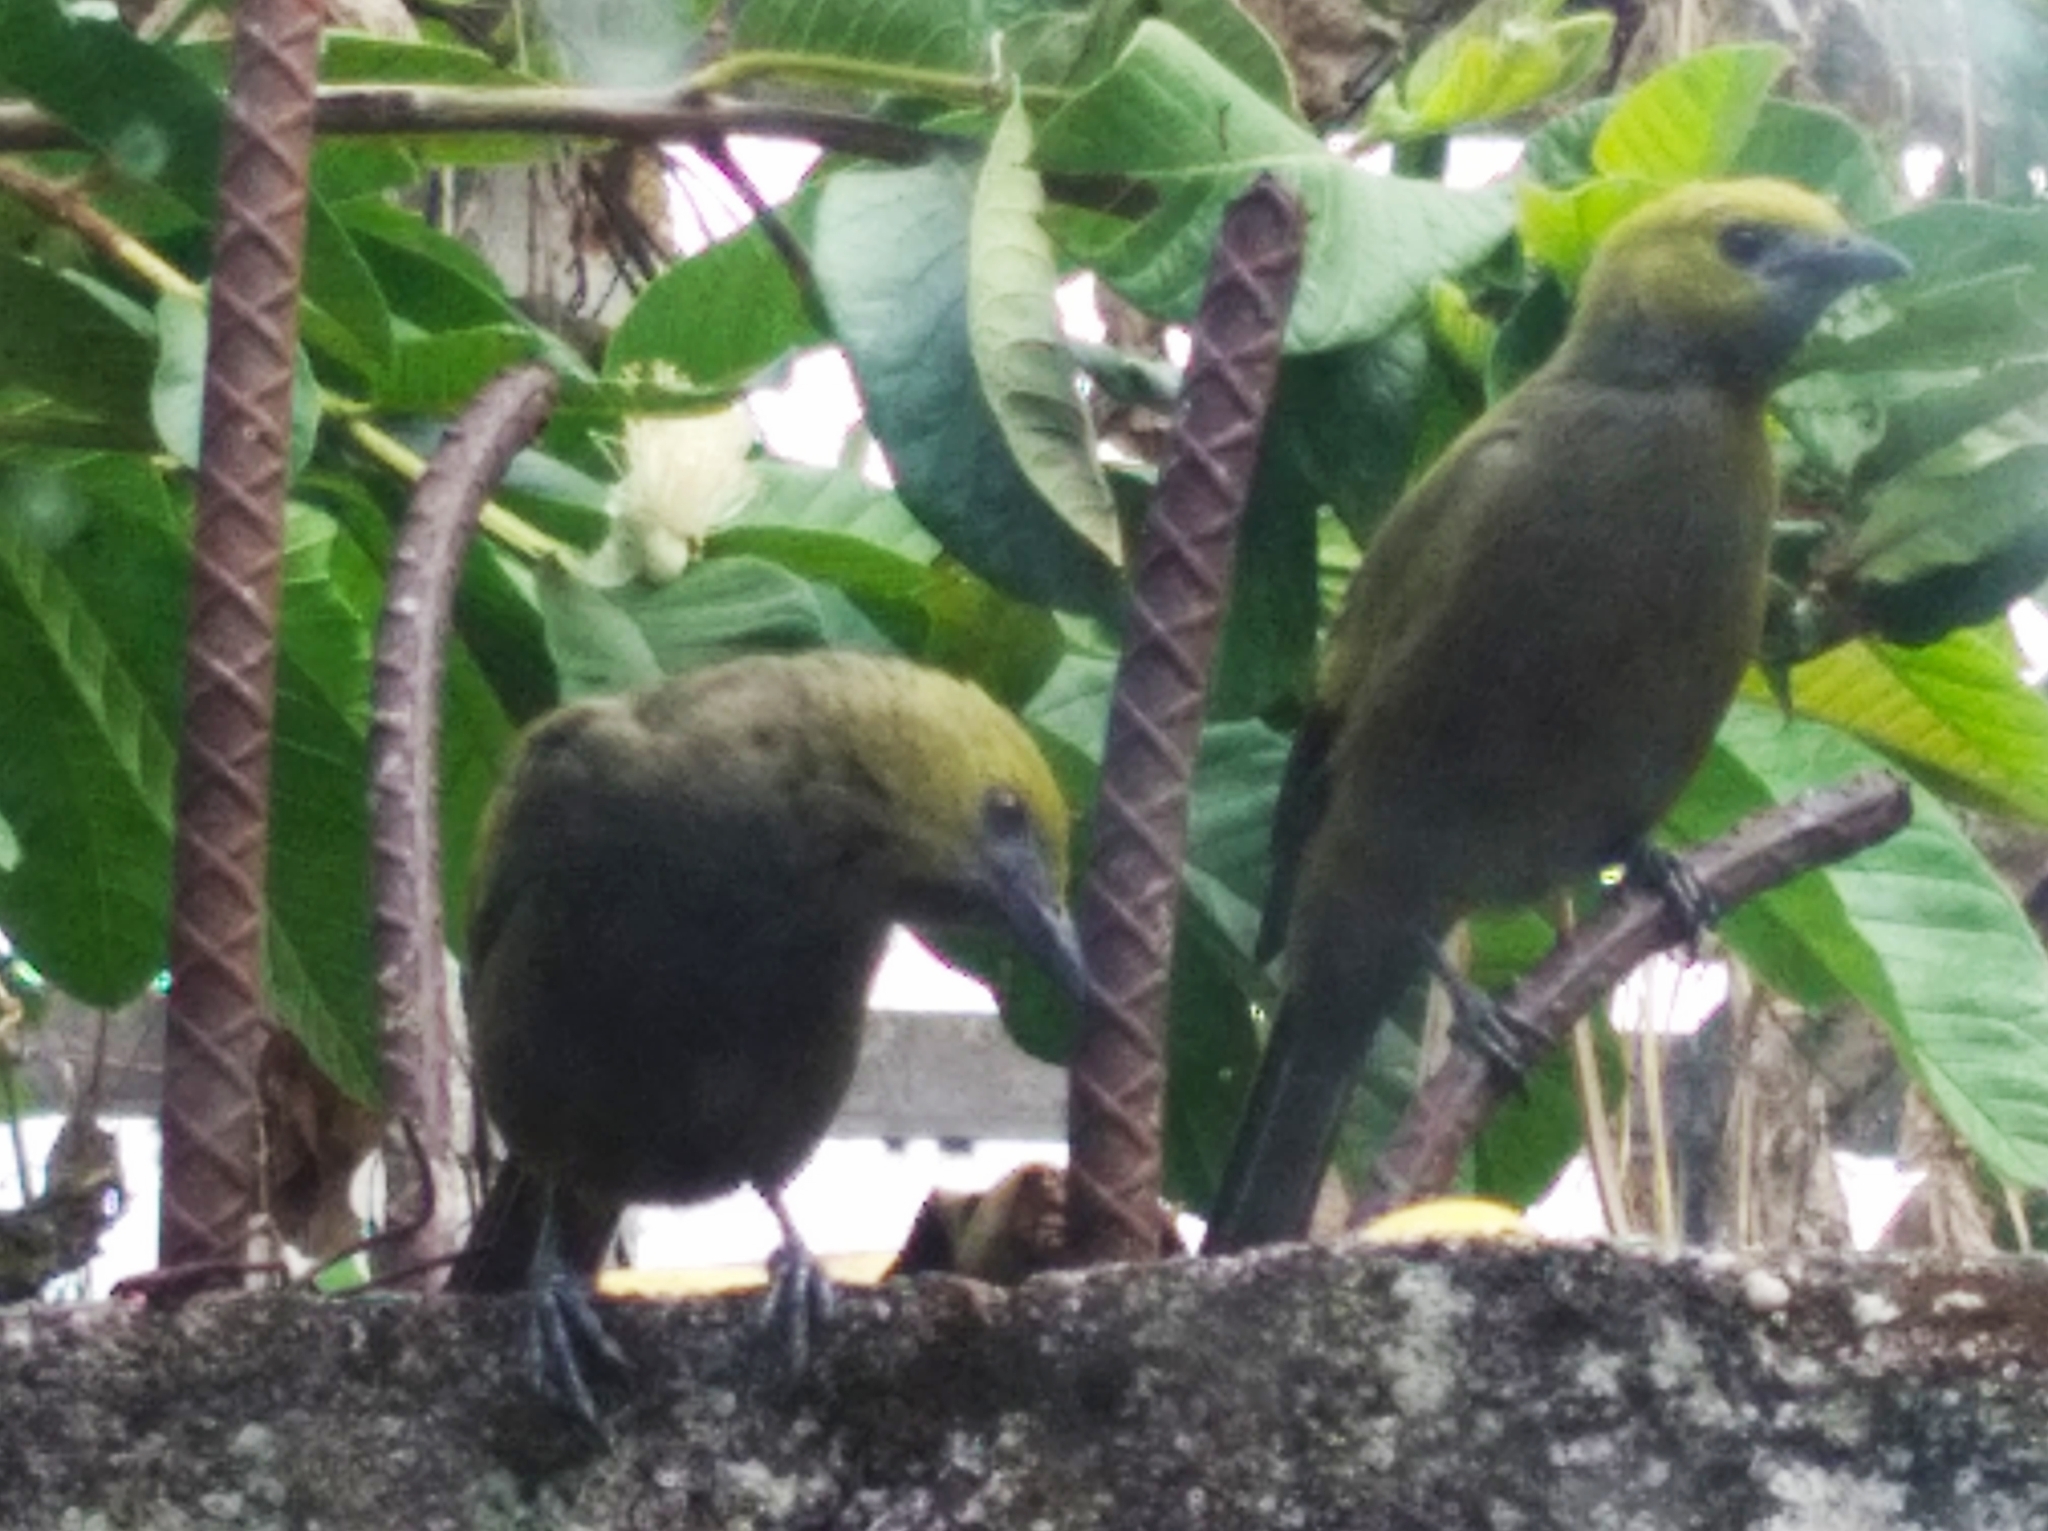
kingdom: Animalia
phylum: Chordata
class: Aves
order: Passeriformes
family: Thraupidae
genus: Thraupis
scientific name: Thraupis palmarum
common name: Palm tanager
